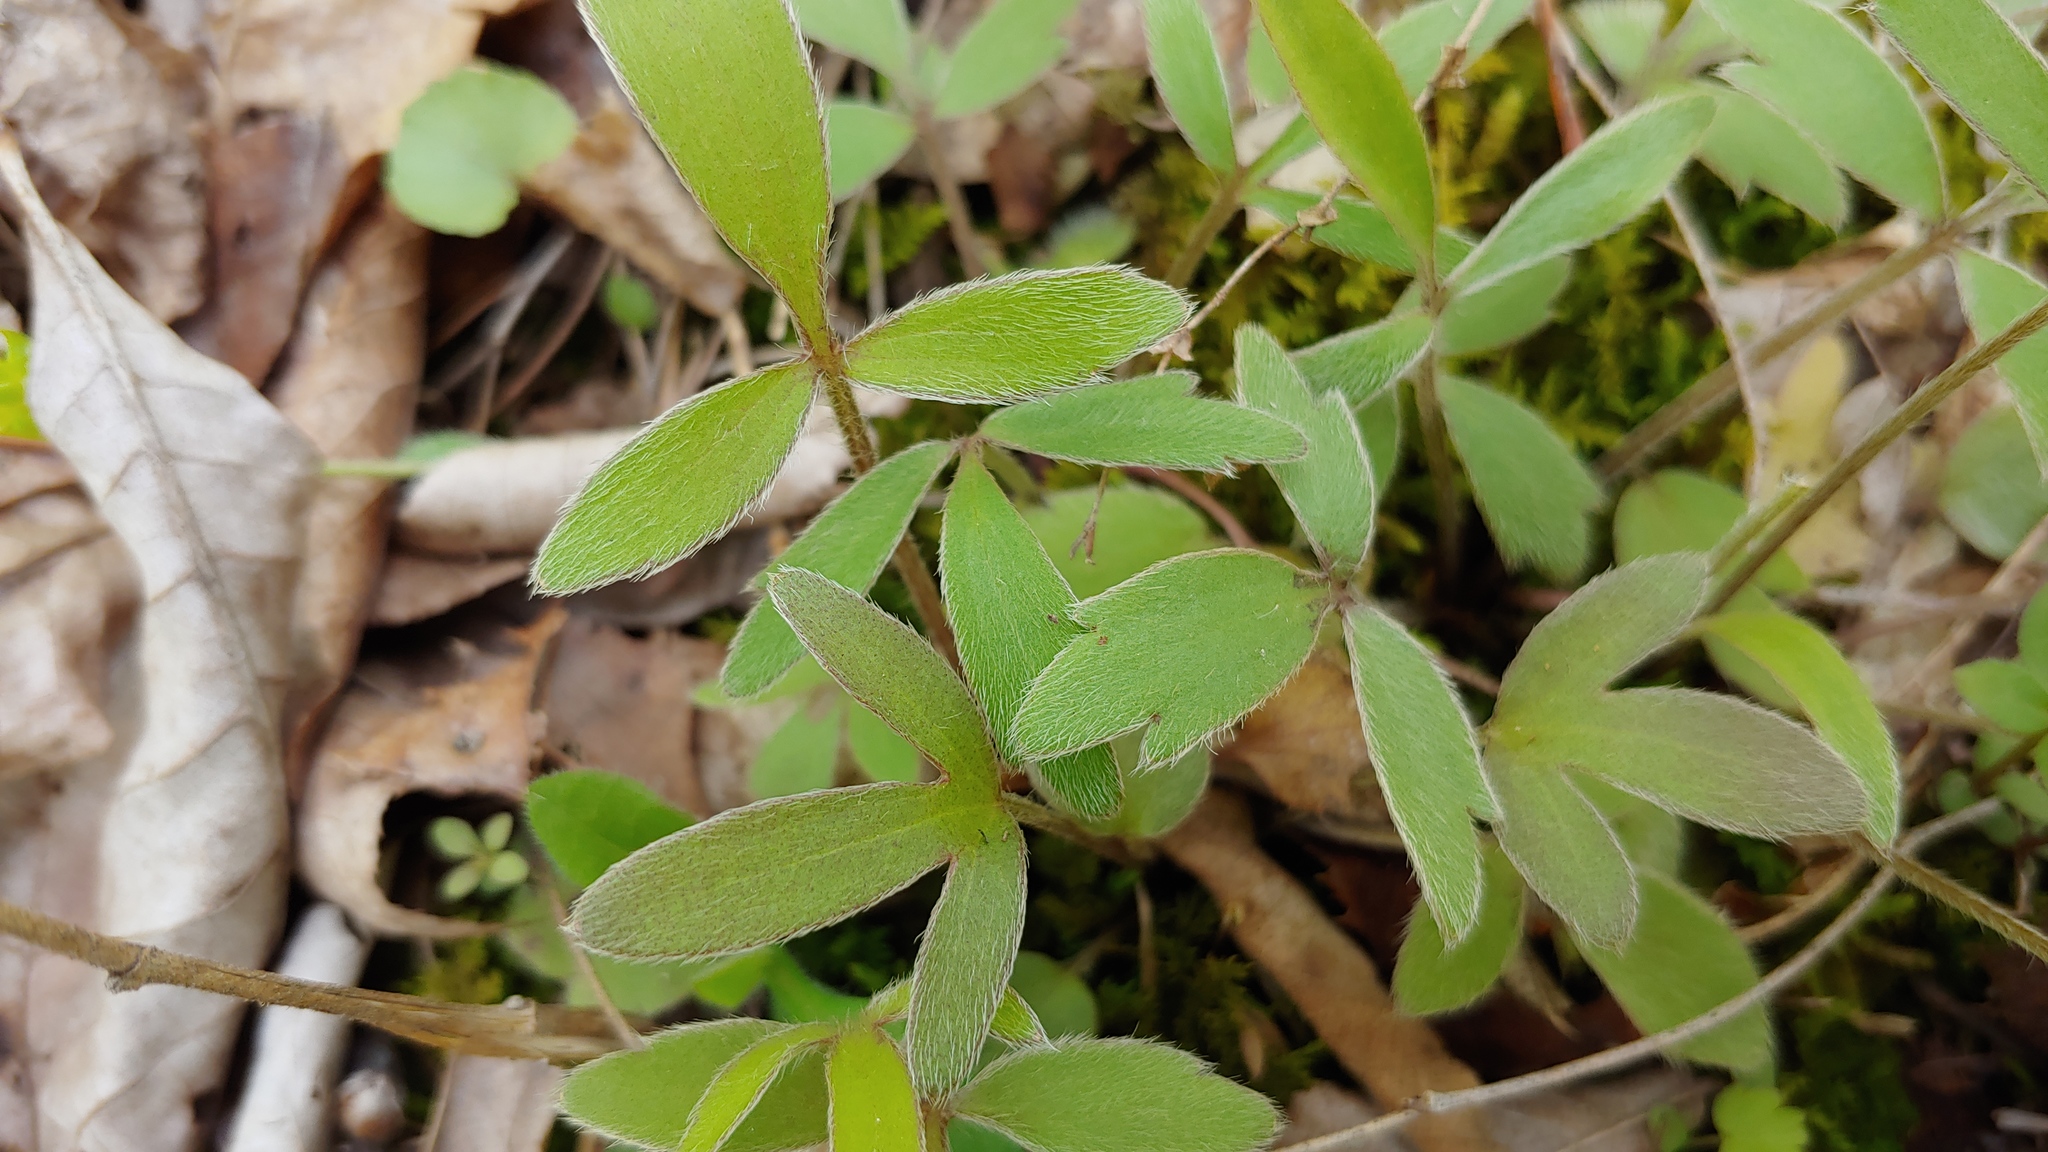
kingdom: Plantae
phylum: Tracheophyta
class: Magnoliopsida
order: Ranunculales
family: Ranunculaceae
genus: Ranunculus
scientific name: Ranunculus fascicularis
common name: Early buttercup
